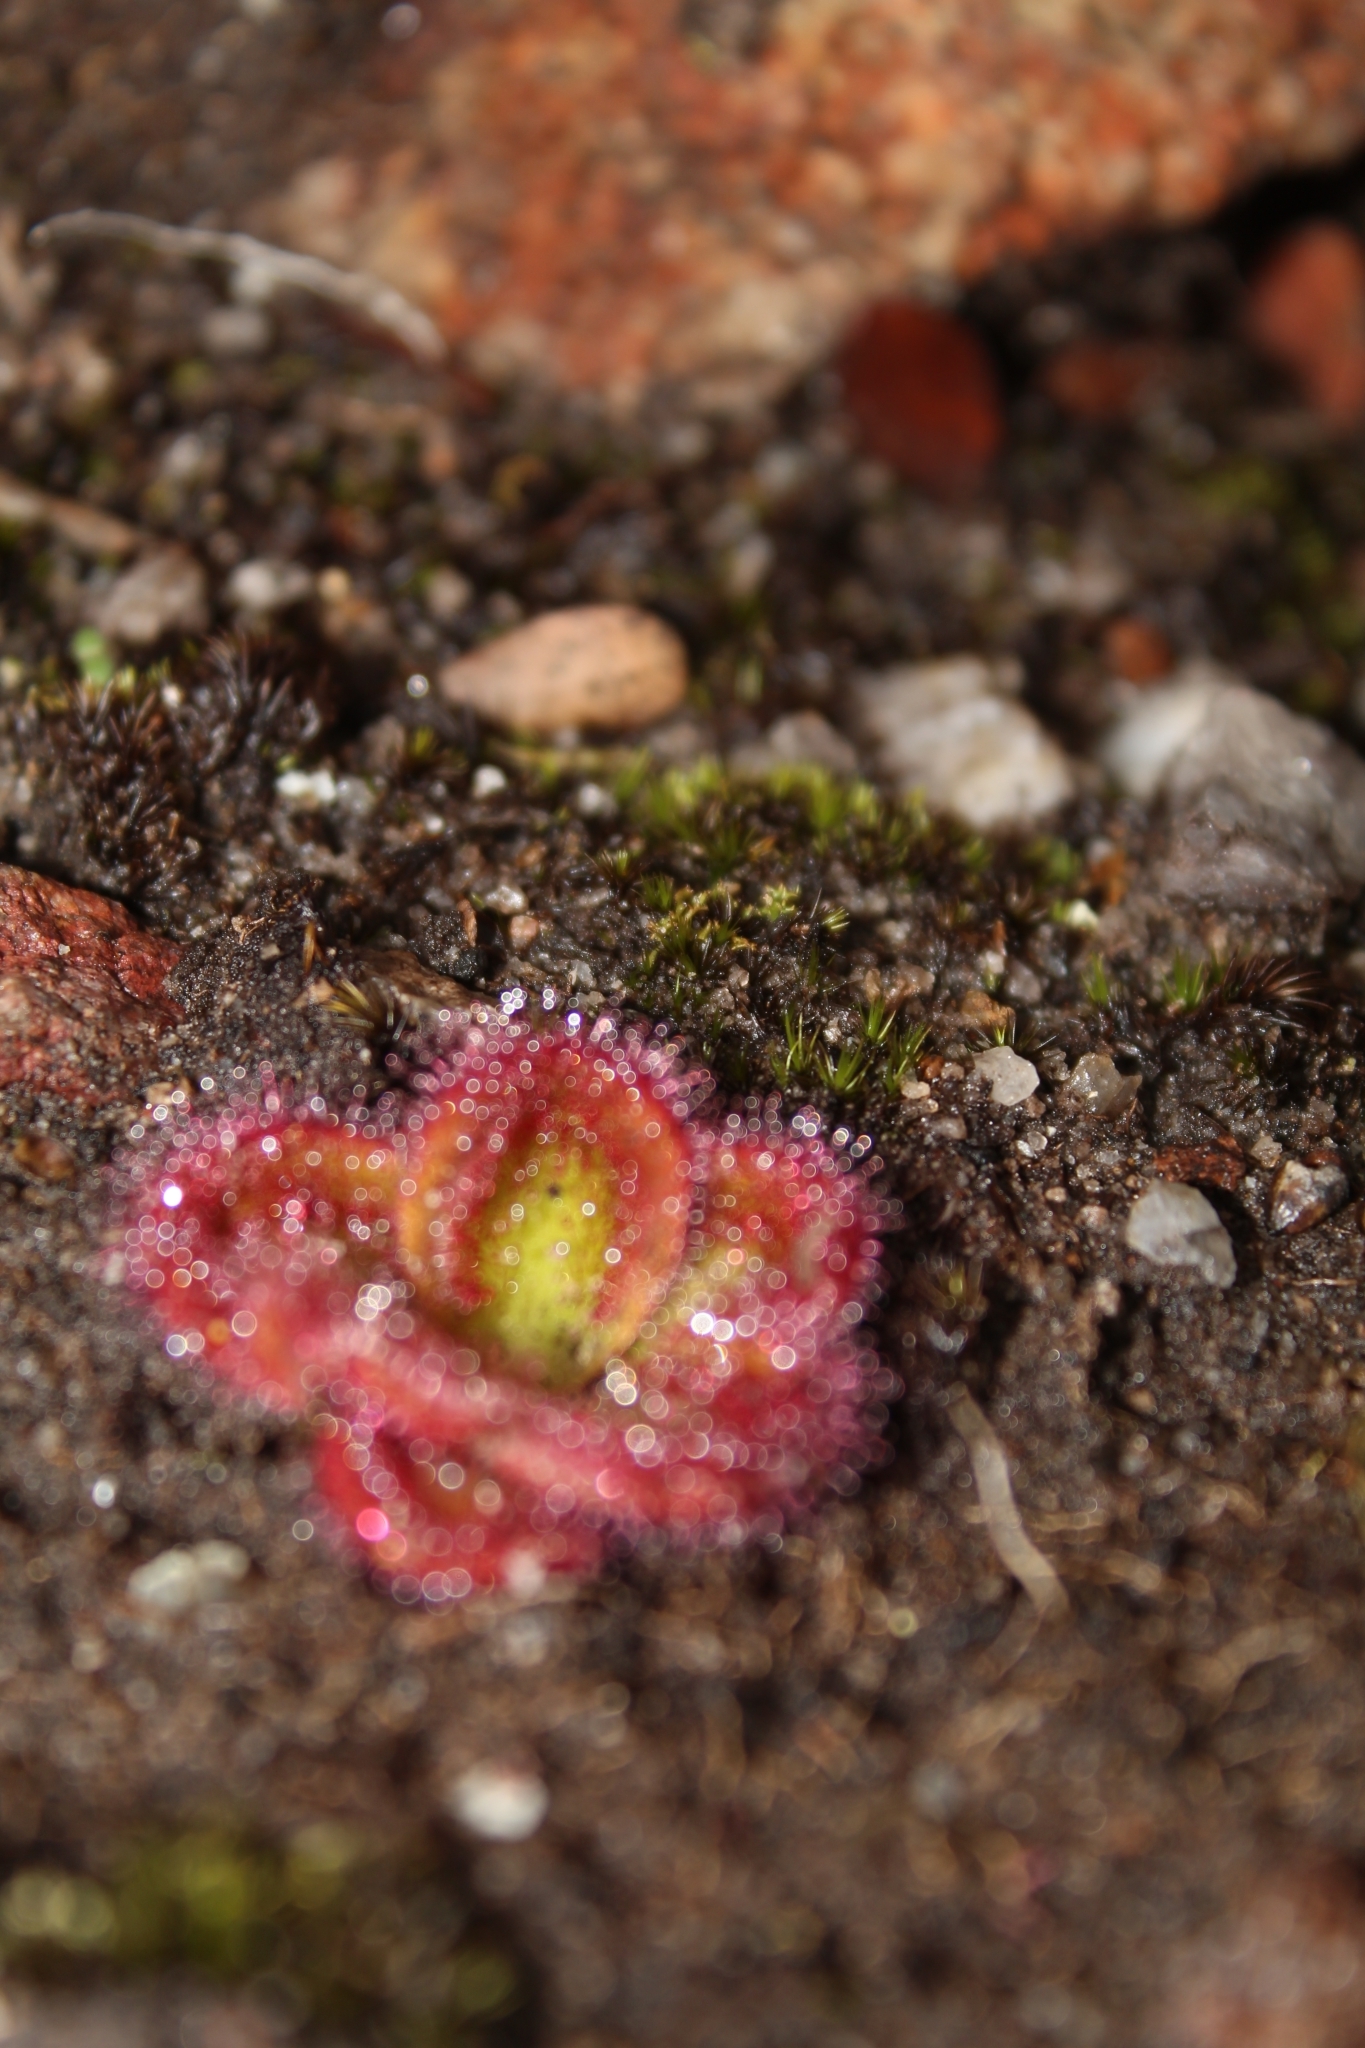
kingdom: Plantae
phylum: Tracheophyta
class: Magnoliopsida
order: Caryophyllales
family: Droseraceae
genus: Drosera
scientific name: Drosera erythrorhiza
